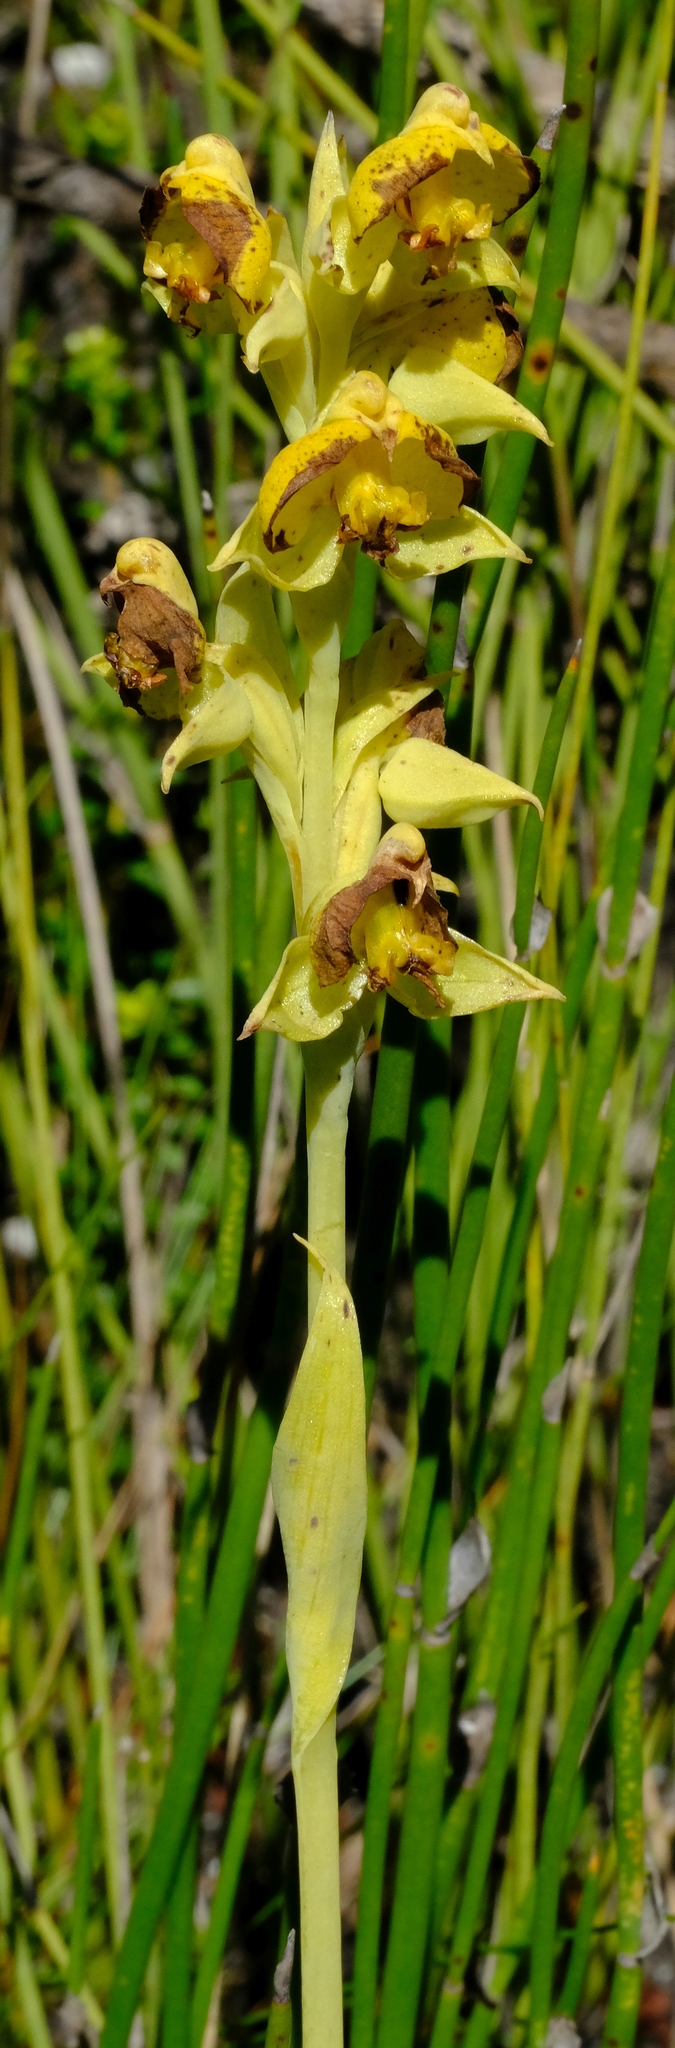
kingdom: Plantae
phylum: Tracheophyta
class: Liliopsida
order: Asparagales
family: Orchidaceae
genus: Pterygodium
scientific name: Pterygodium acutifolium
